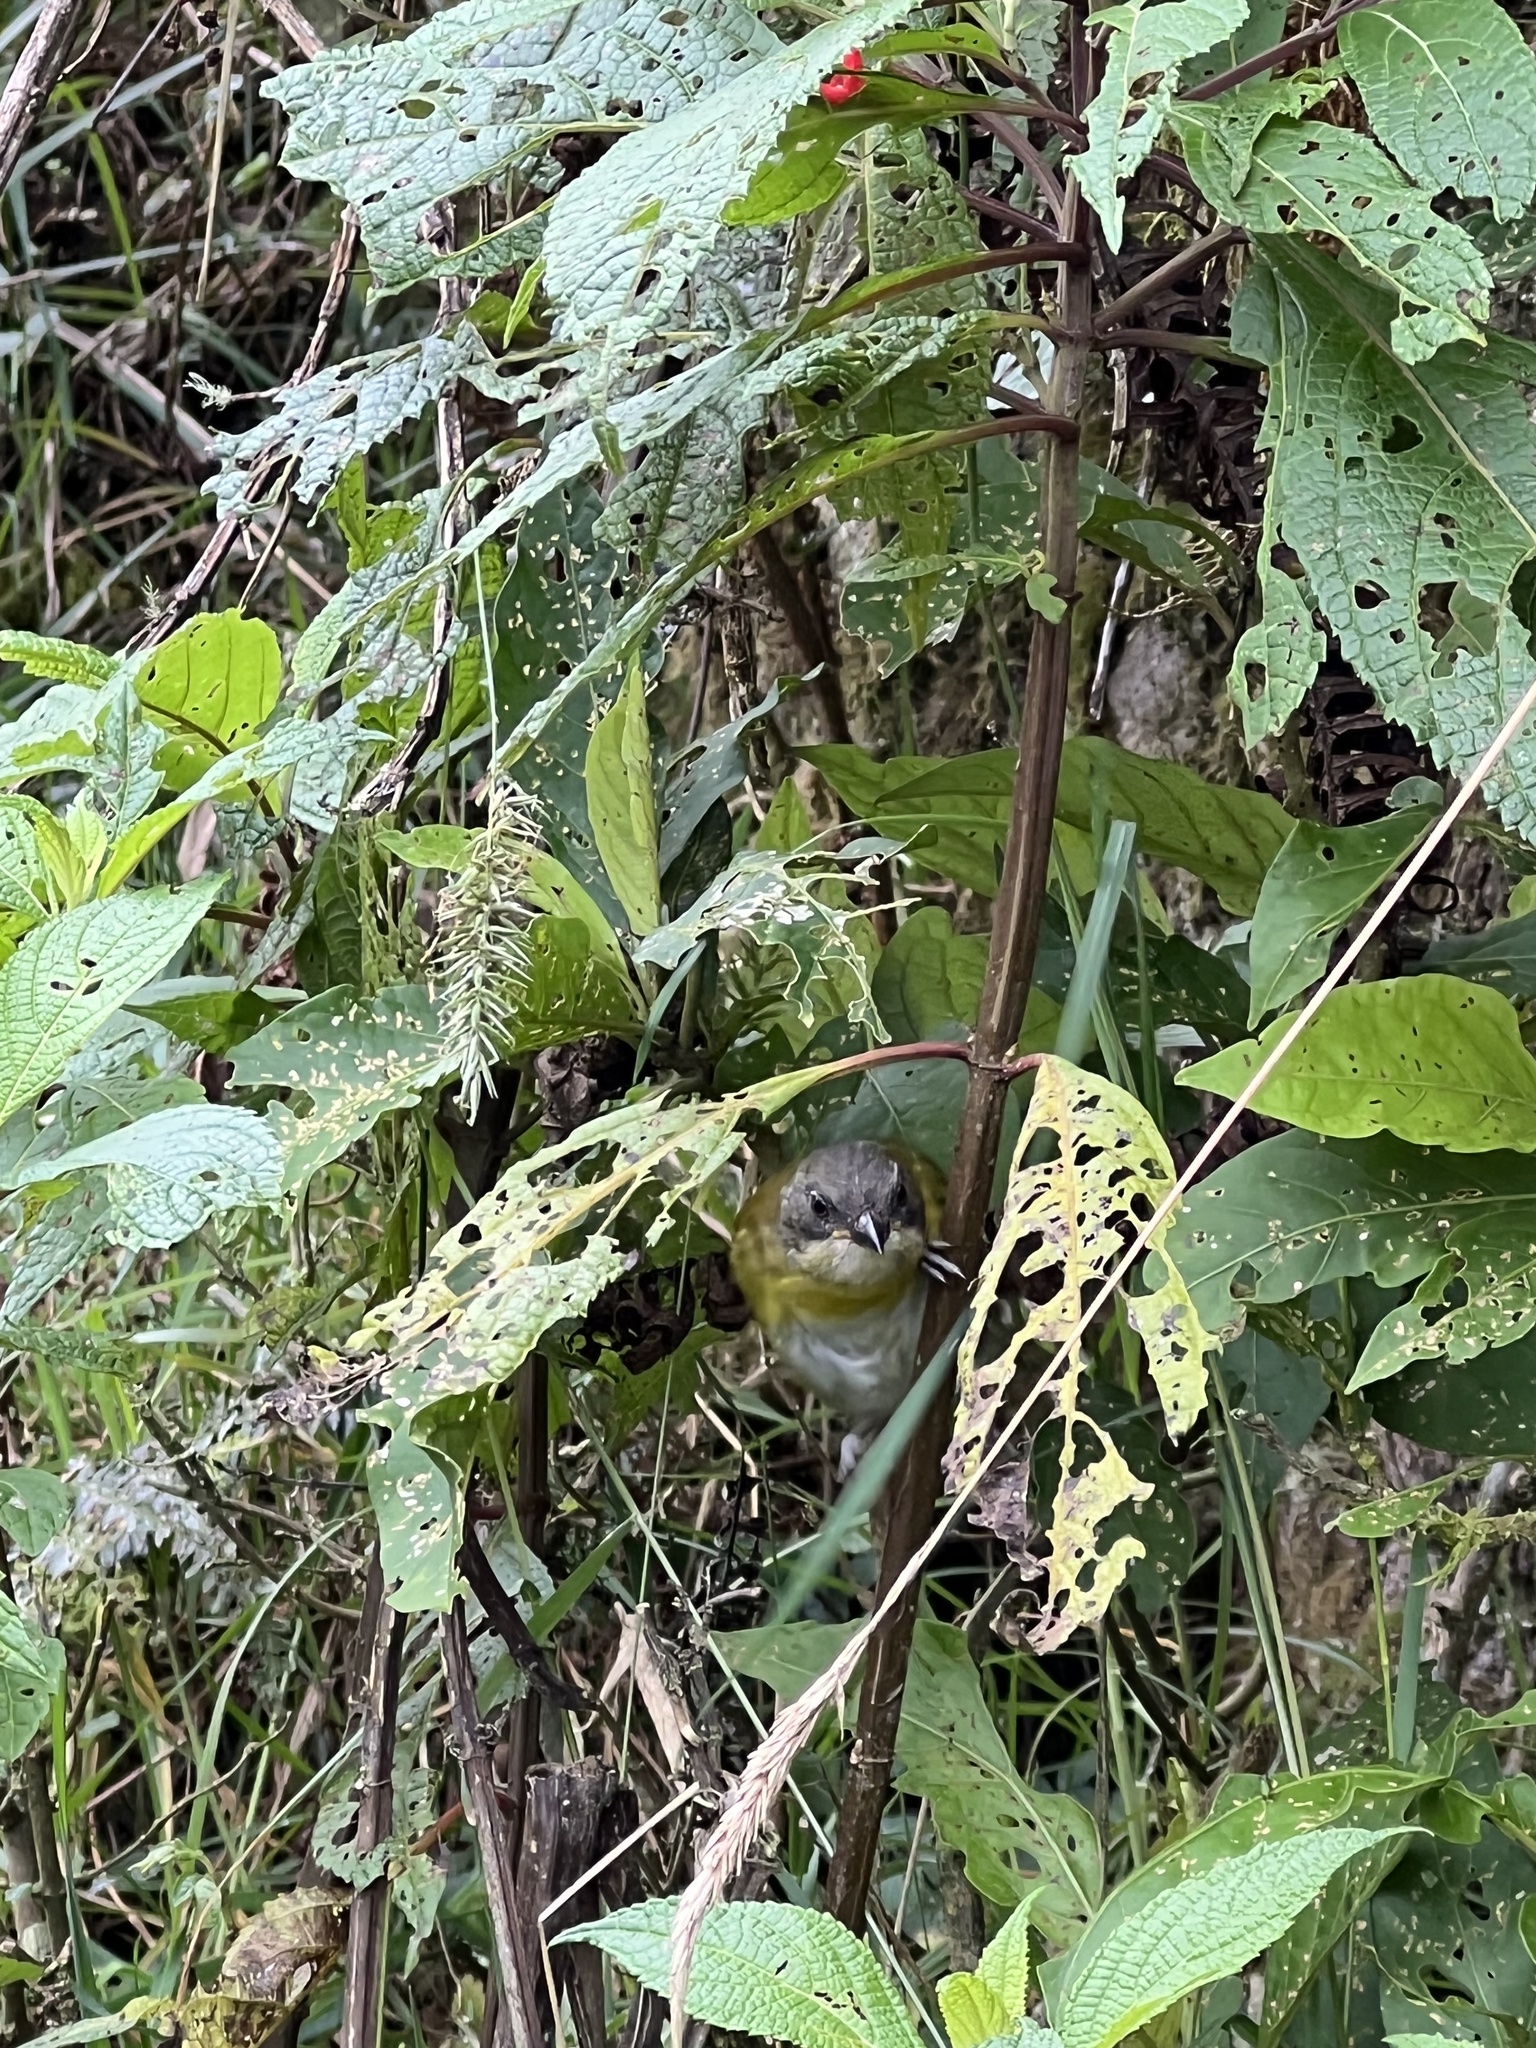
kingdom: Animalia
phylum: Chordata
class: Aves
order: Passeriformes
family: Passerellidae
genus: Chlorospingus
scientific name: Chlorospingus flavopectus
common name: Common chlorospingus
